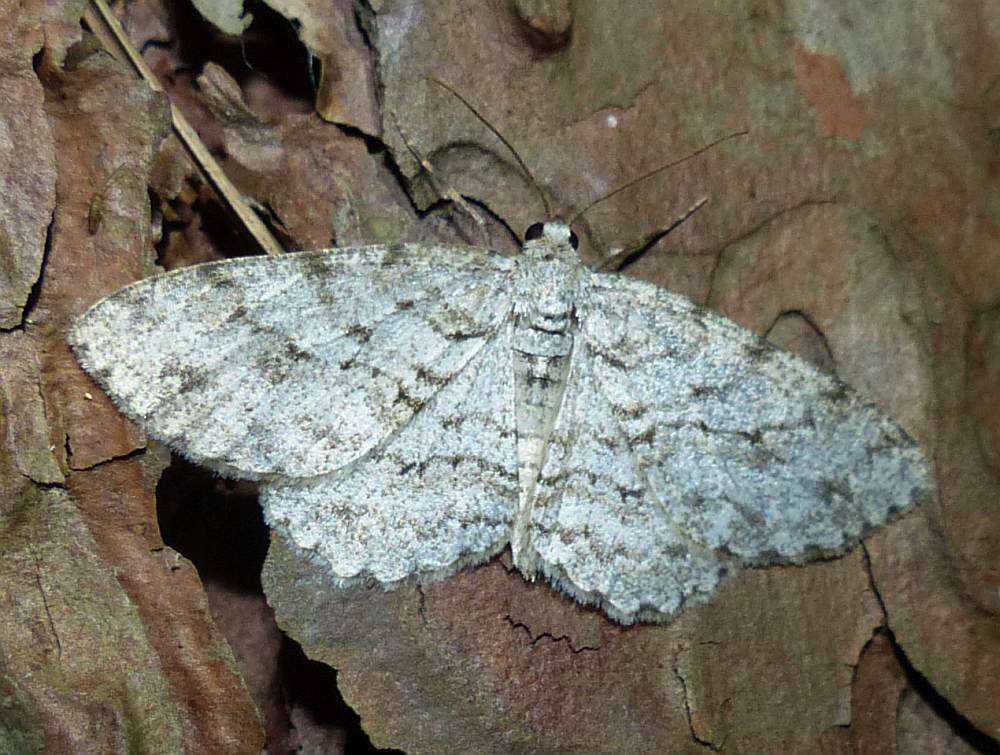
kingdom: Animalia
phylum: Arthropoda
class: Insecta
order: Lepidoptera
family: Geometridae
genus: Ectropis
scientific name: Ectropis crepuscularia
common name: Engrailed
